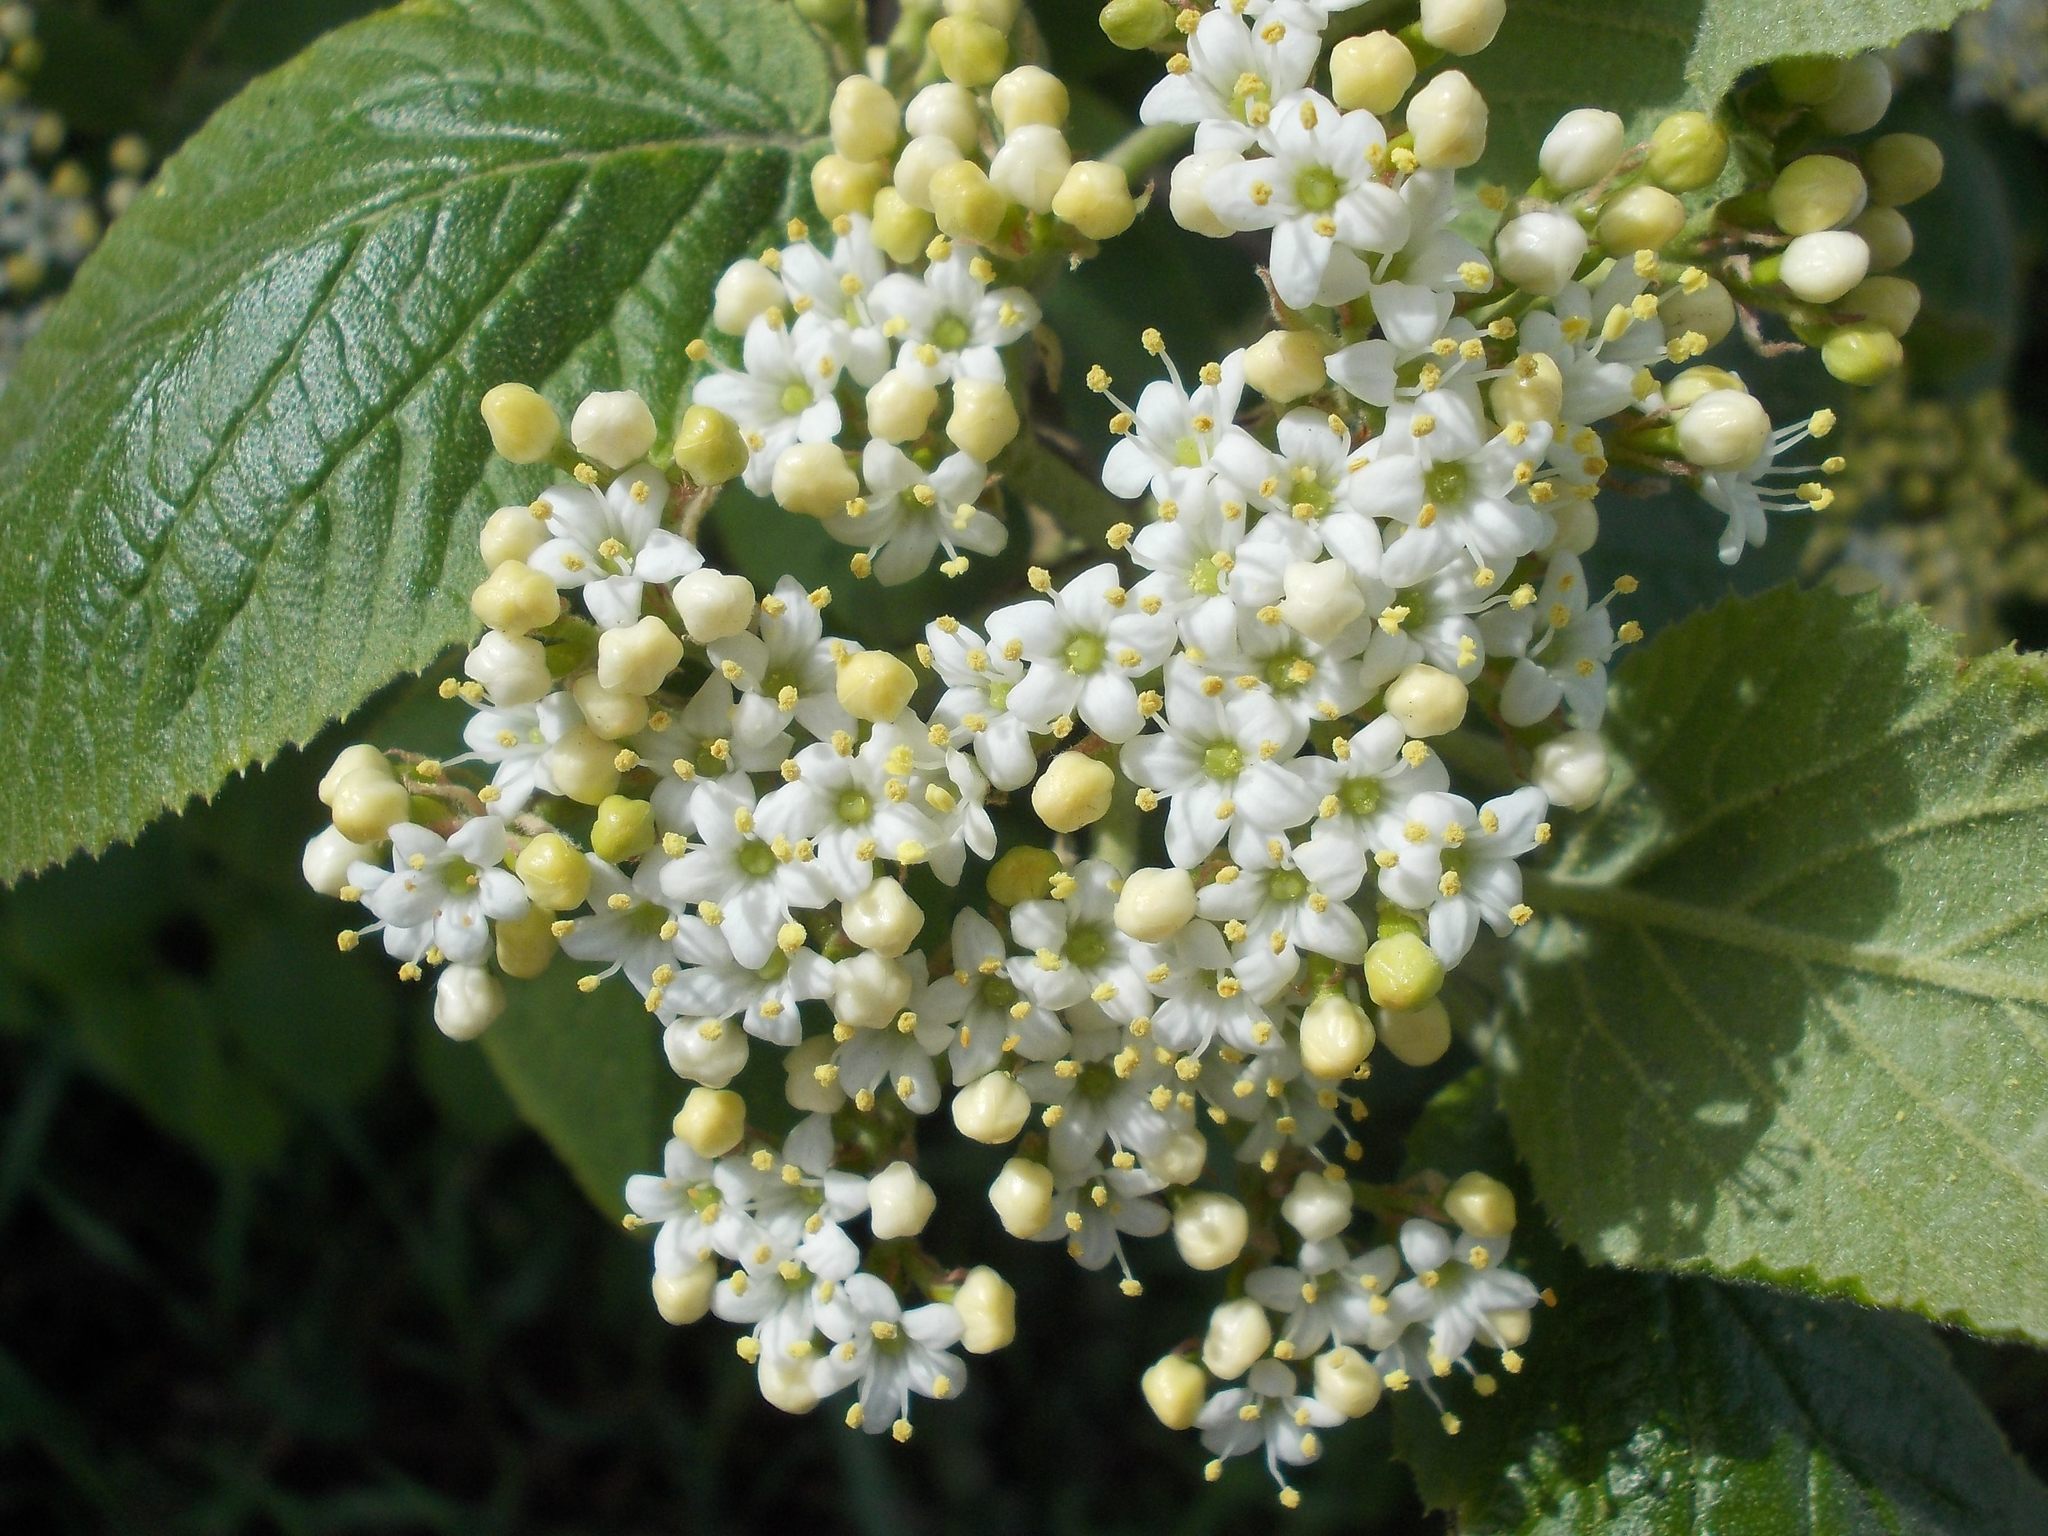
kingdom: Plantae
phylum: Tracheophyta
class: Magnoliopsida
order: Dipsacales
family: Viburnaceae
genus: Viburnum
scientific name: Viburnum lantana
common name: Wayfaring tree
